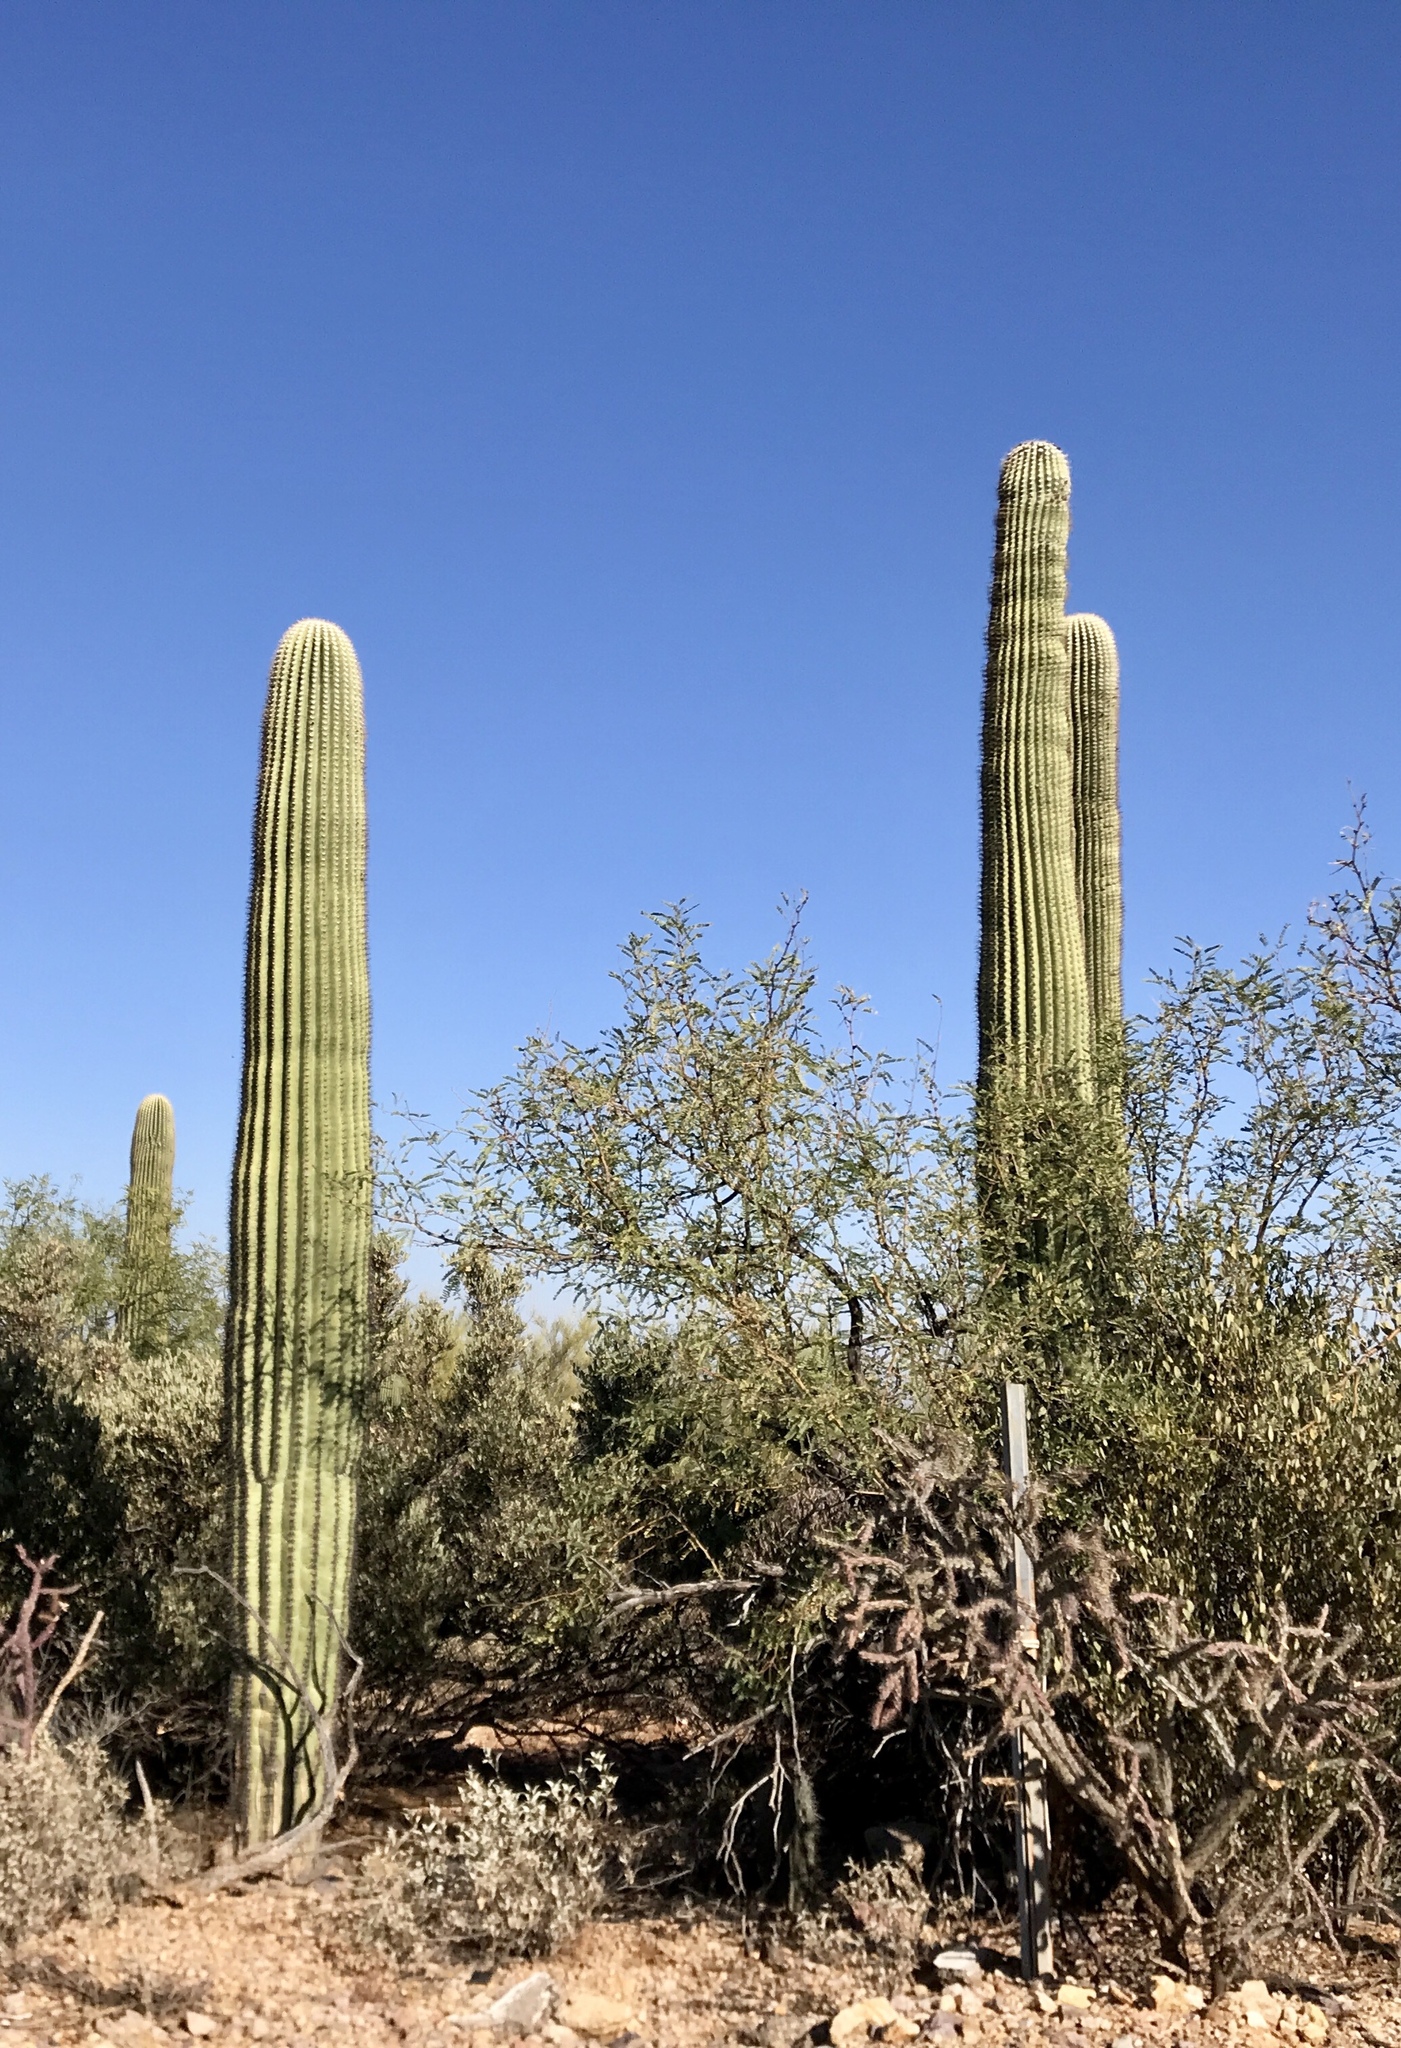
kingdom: Plantae
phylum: Tracheophyta
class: Magnoliopsida
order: Caryophyllales
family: Cactaceae
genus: Carnegiea
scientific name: Carnegiea gigantea
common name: Saguaro
